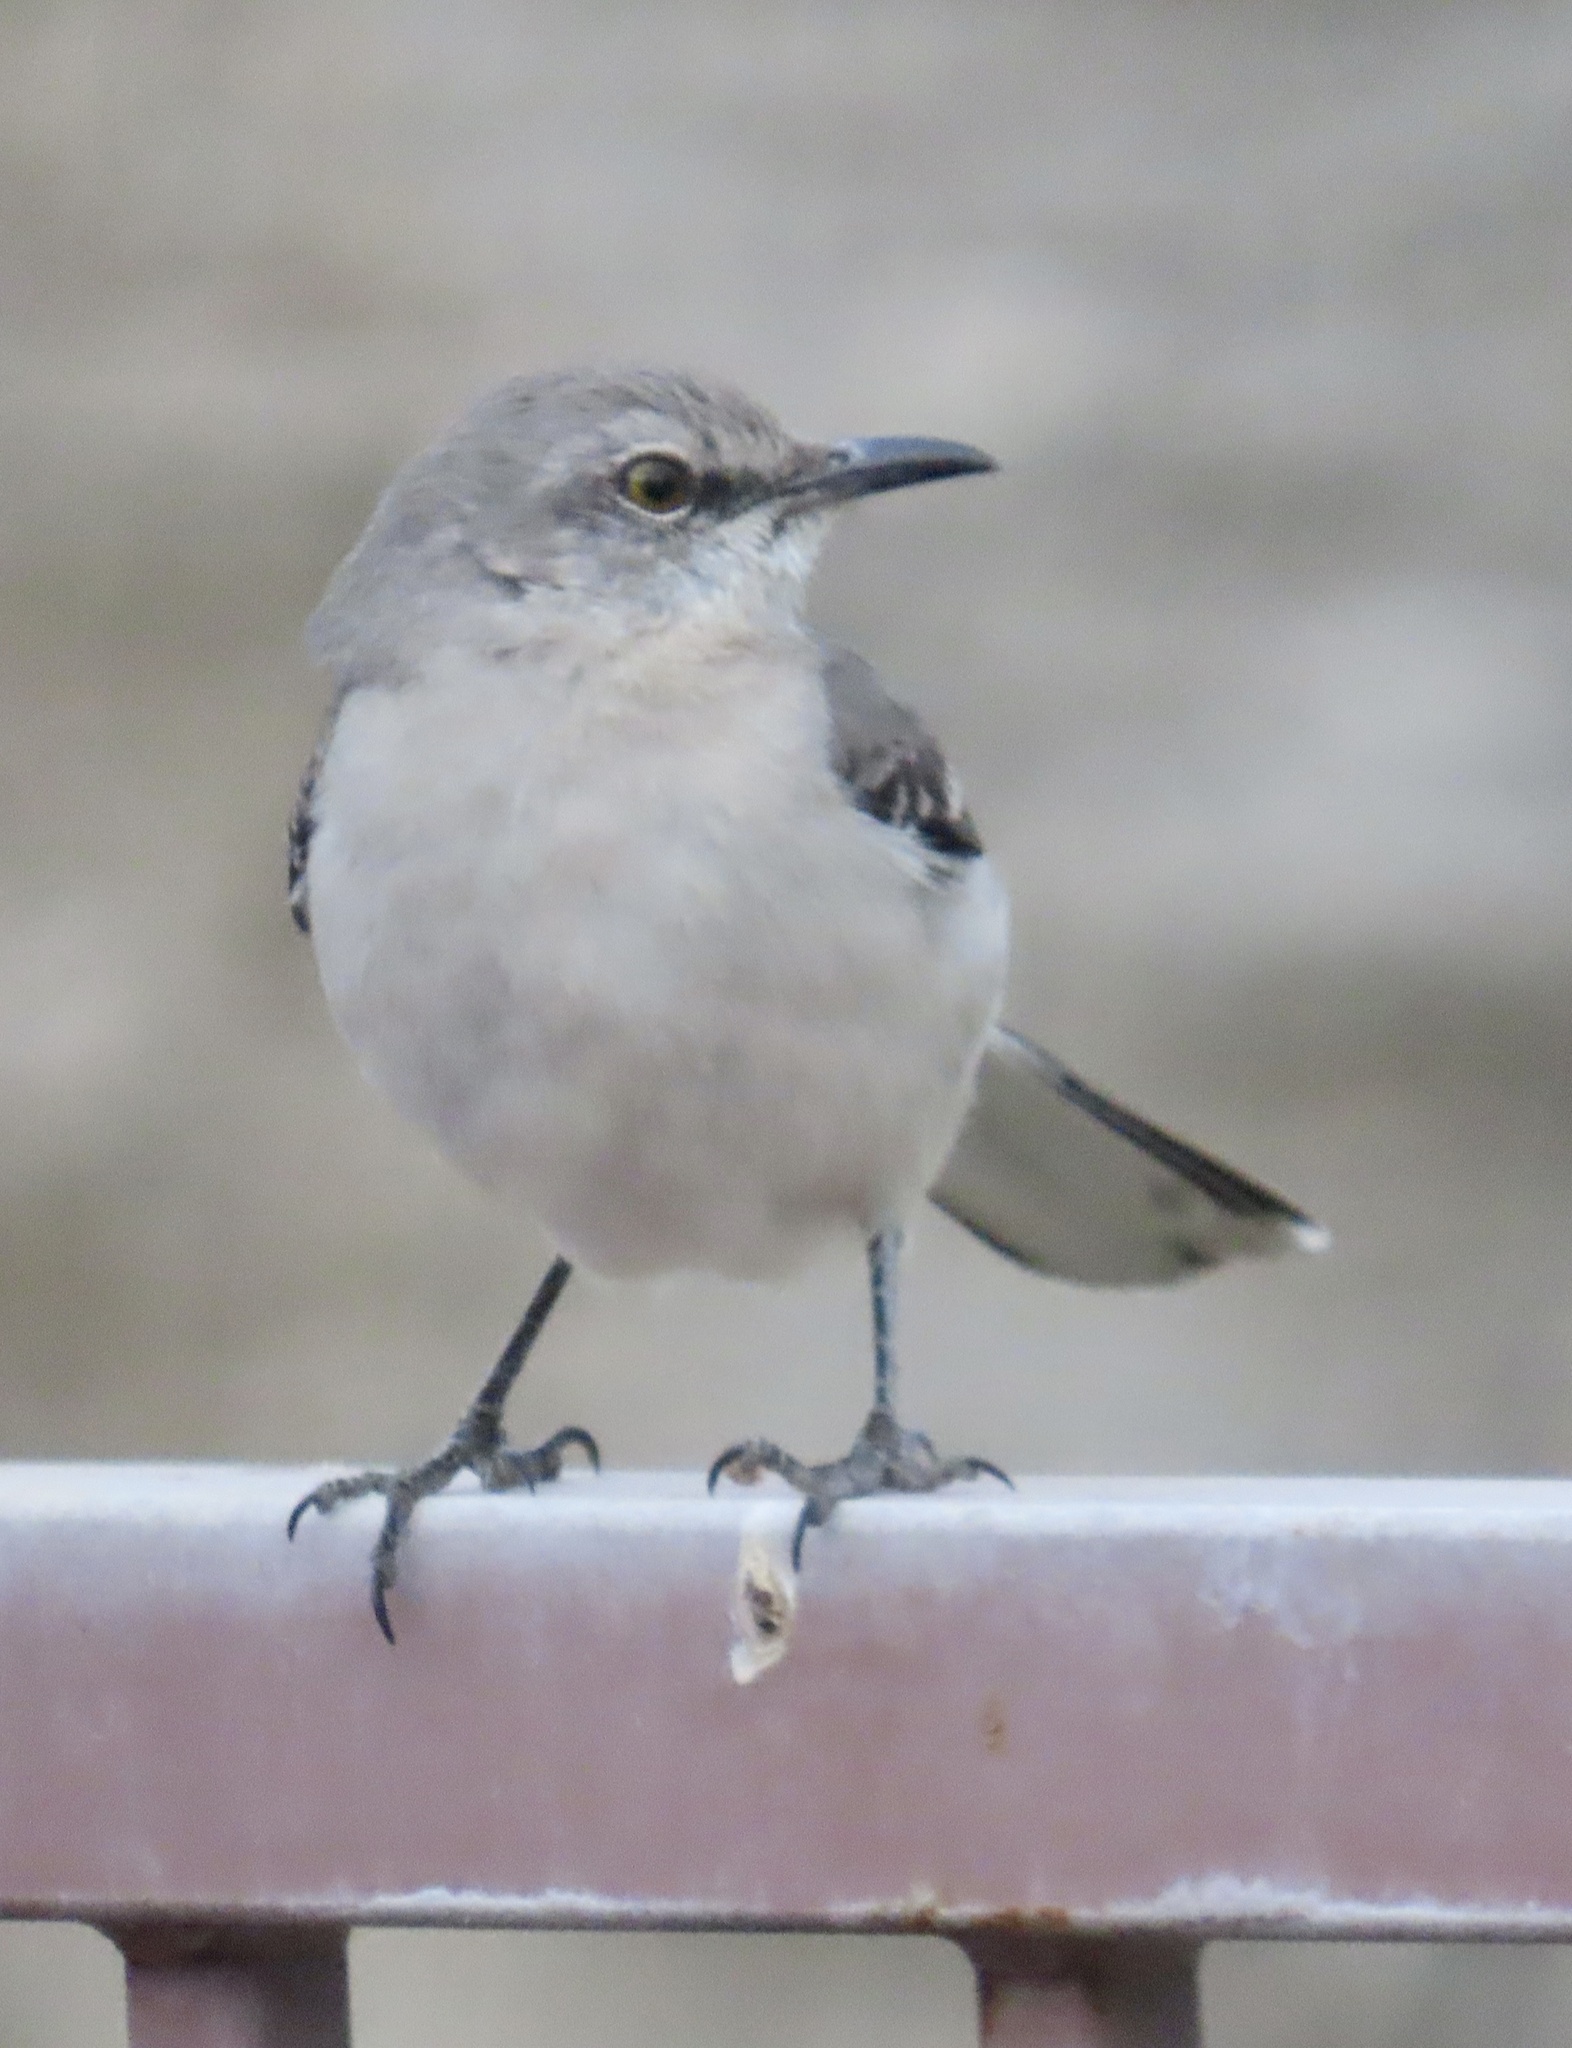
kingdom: Animalia
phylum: Chordata
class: Aves
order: Passeriformes
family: Mimidae
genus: Mimus
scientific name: Mimus polyglottos
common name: Northern mockingbird
